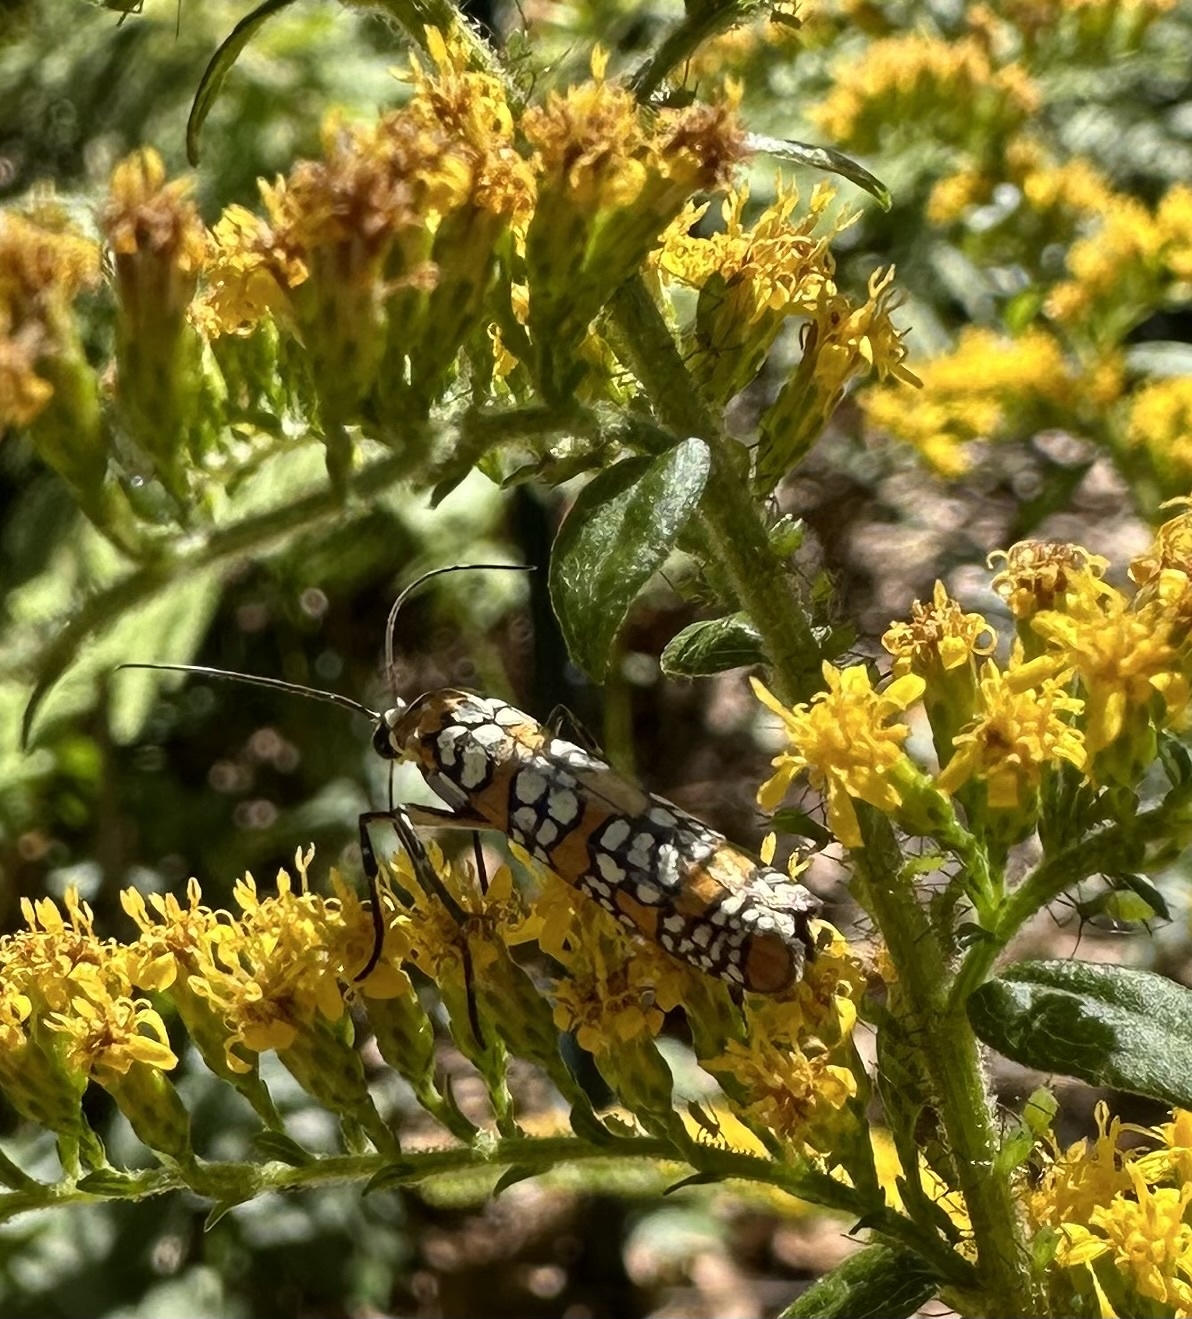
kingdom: Animalia
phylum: Arthropoda
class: Insecta
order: Lepidoptera
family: Attevidae
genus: Atteva
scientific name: Atteva punctella
